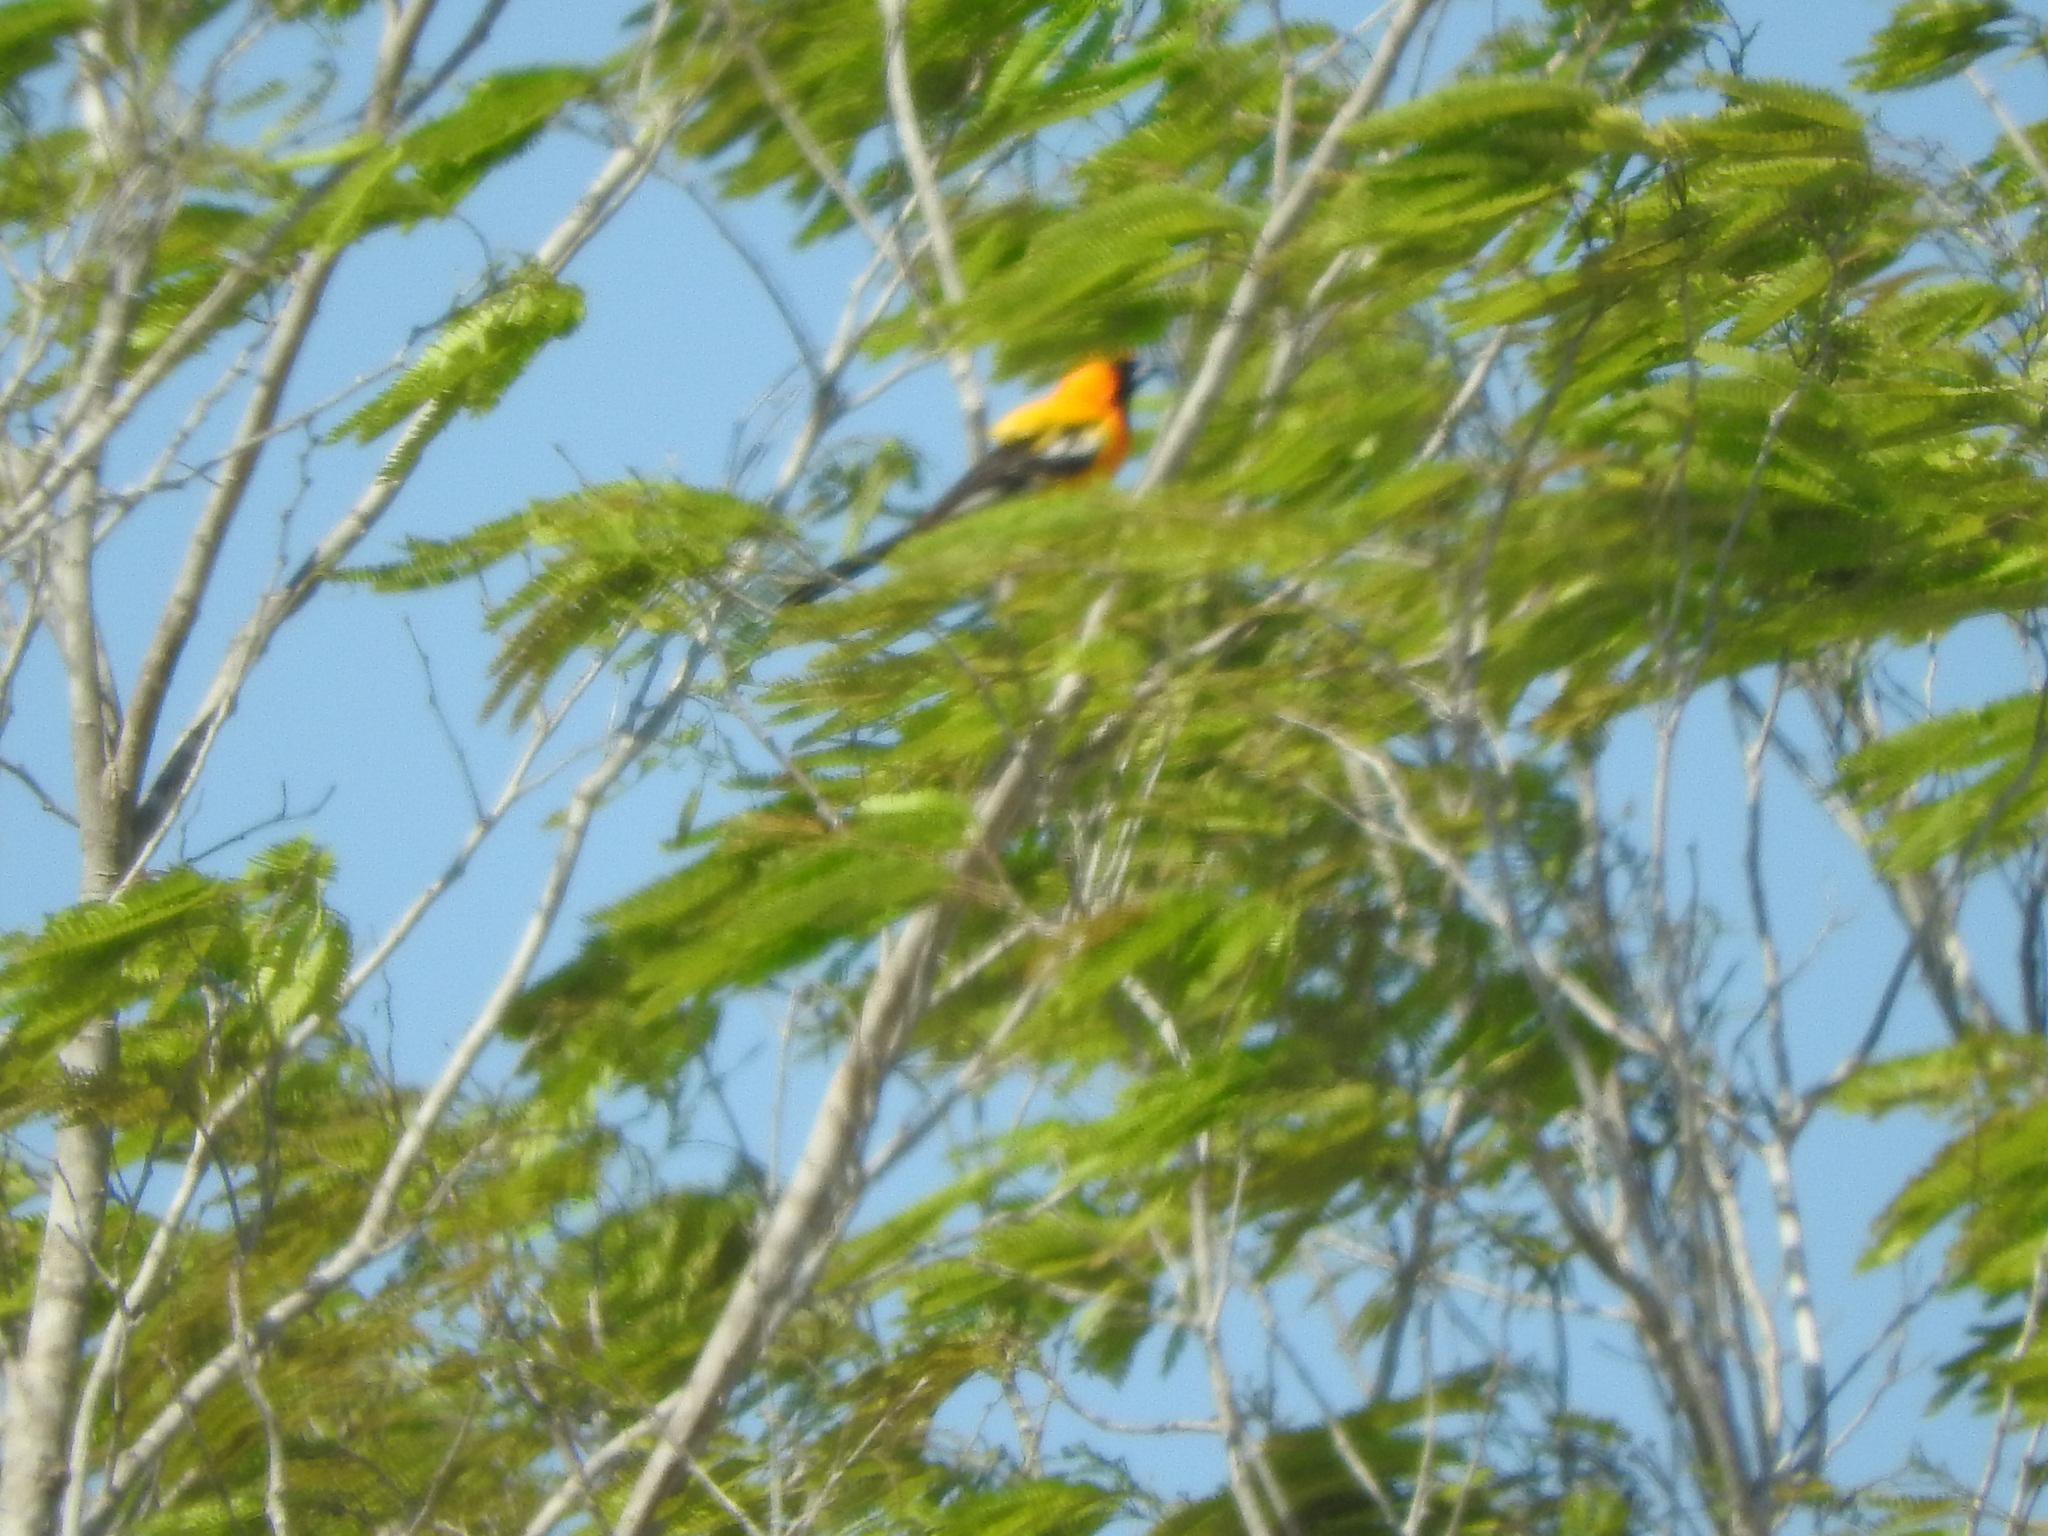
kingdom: Animalia
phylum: Chordata
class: Aves
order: Passeriformes
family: Icteridae
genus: Icterus
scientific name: Icterus auratus
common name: Orange oriole
